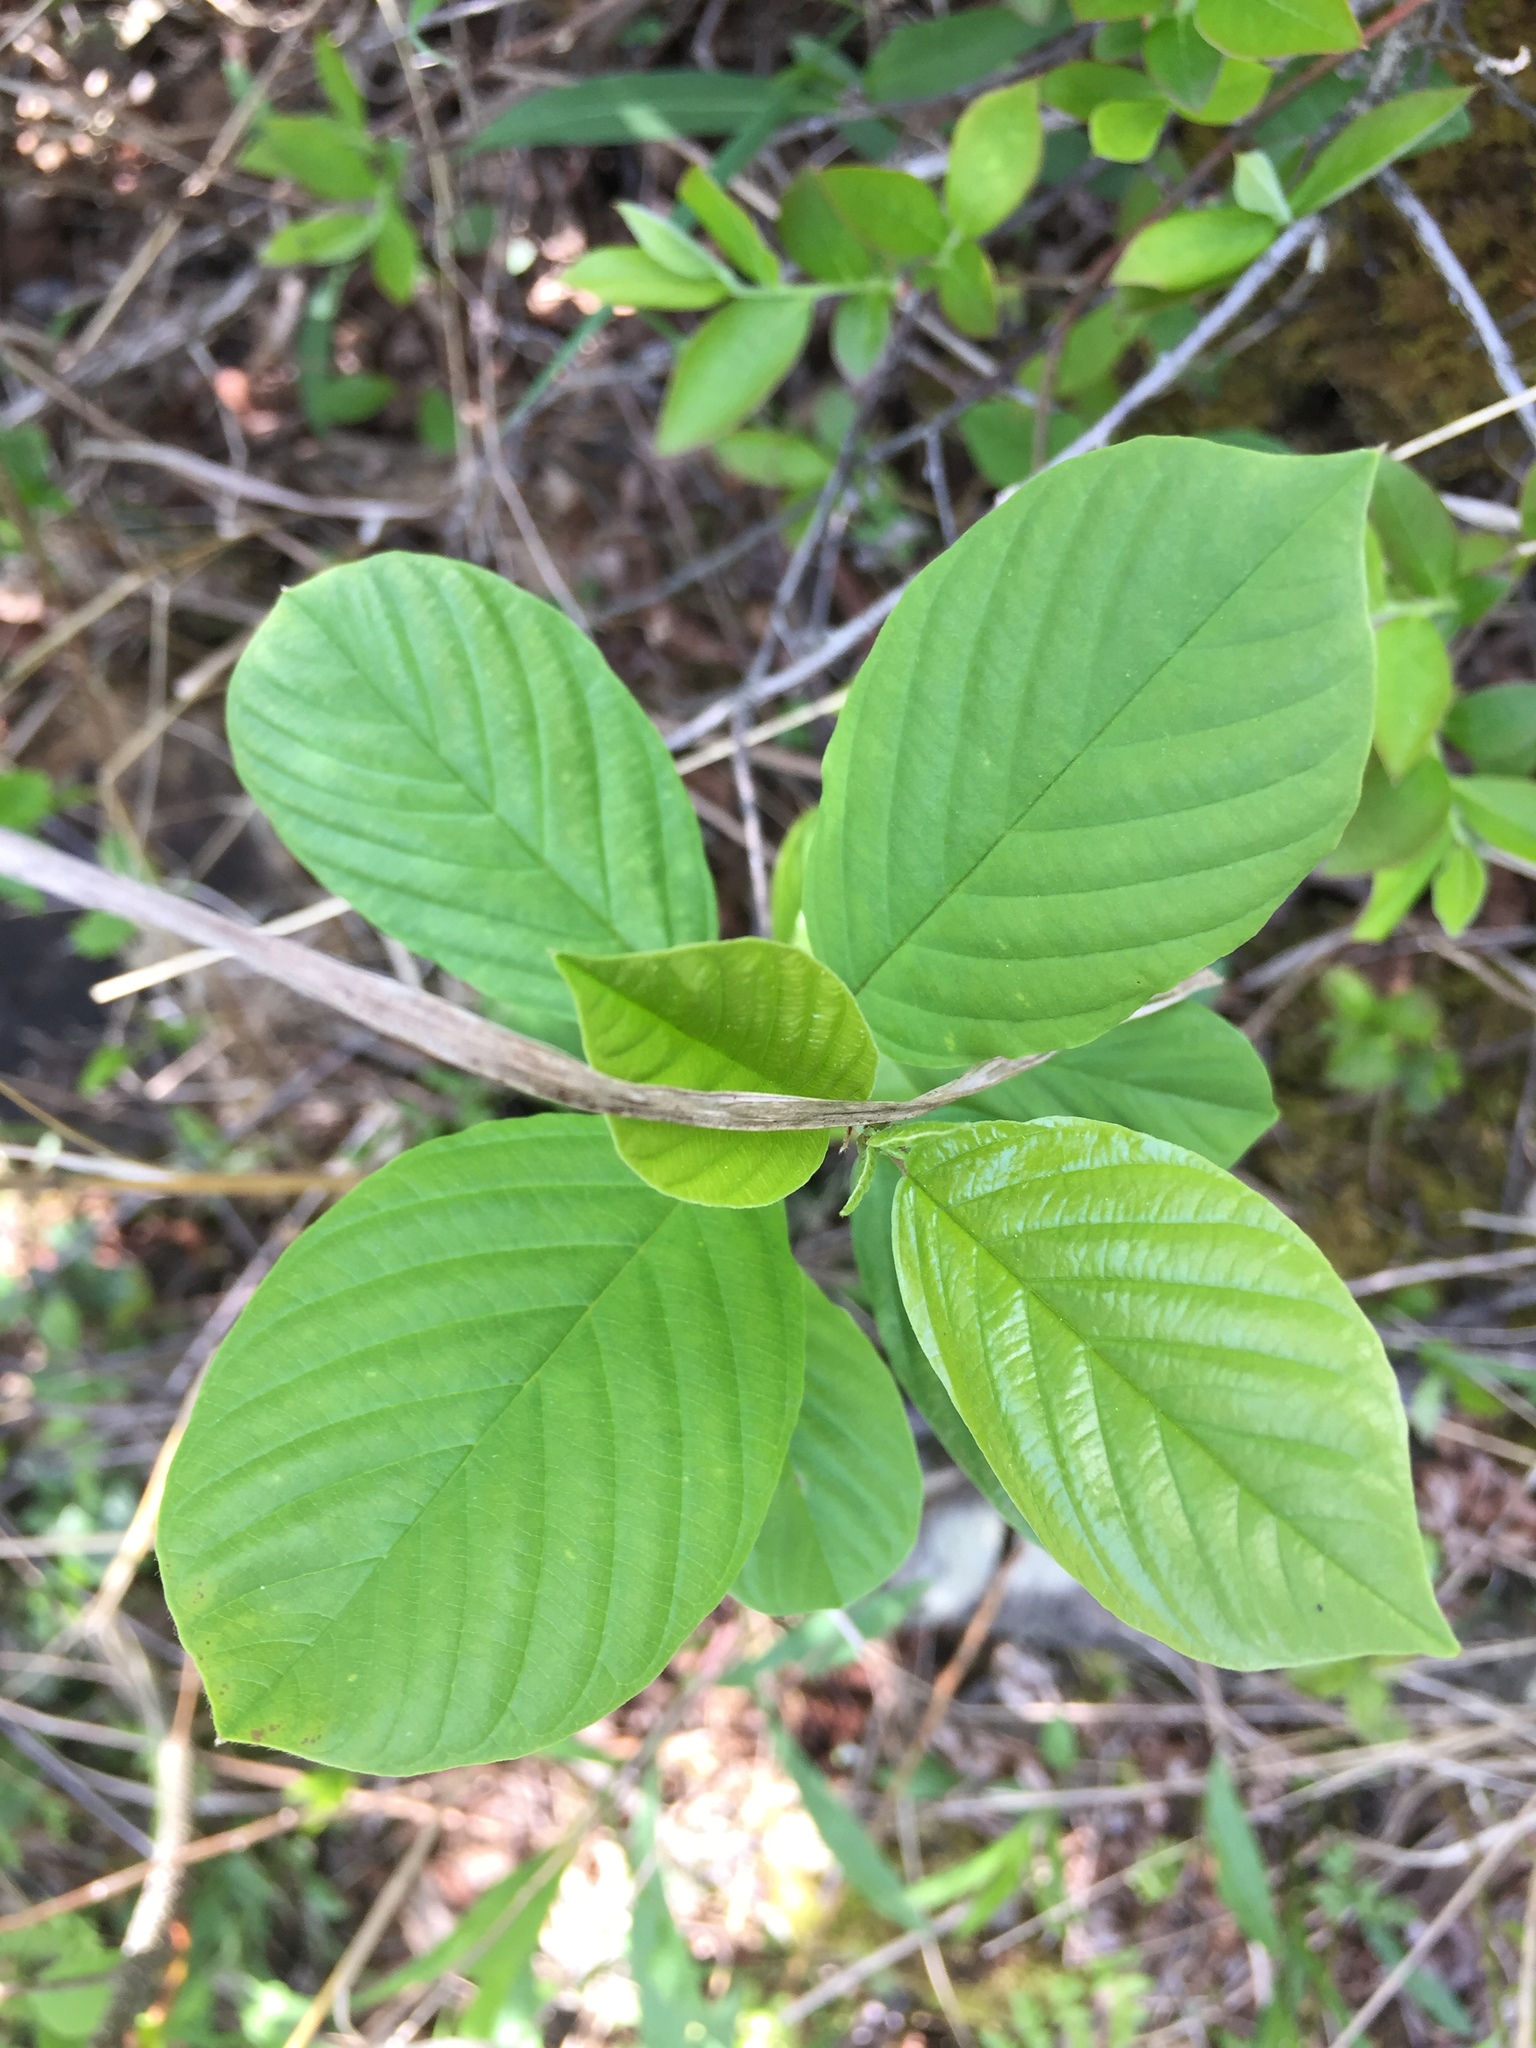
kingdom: Plantae
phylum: Tracheophyta
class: Magnoliopsida
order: Rosales
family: Rhamnaceae
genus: Frangula
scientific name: Frangula alnus
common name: Alder buckthorn
